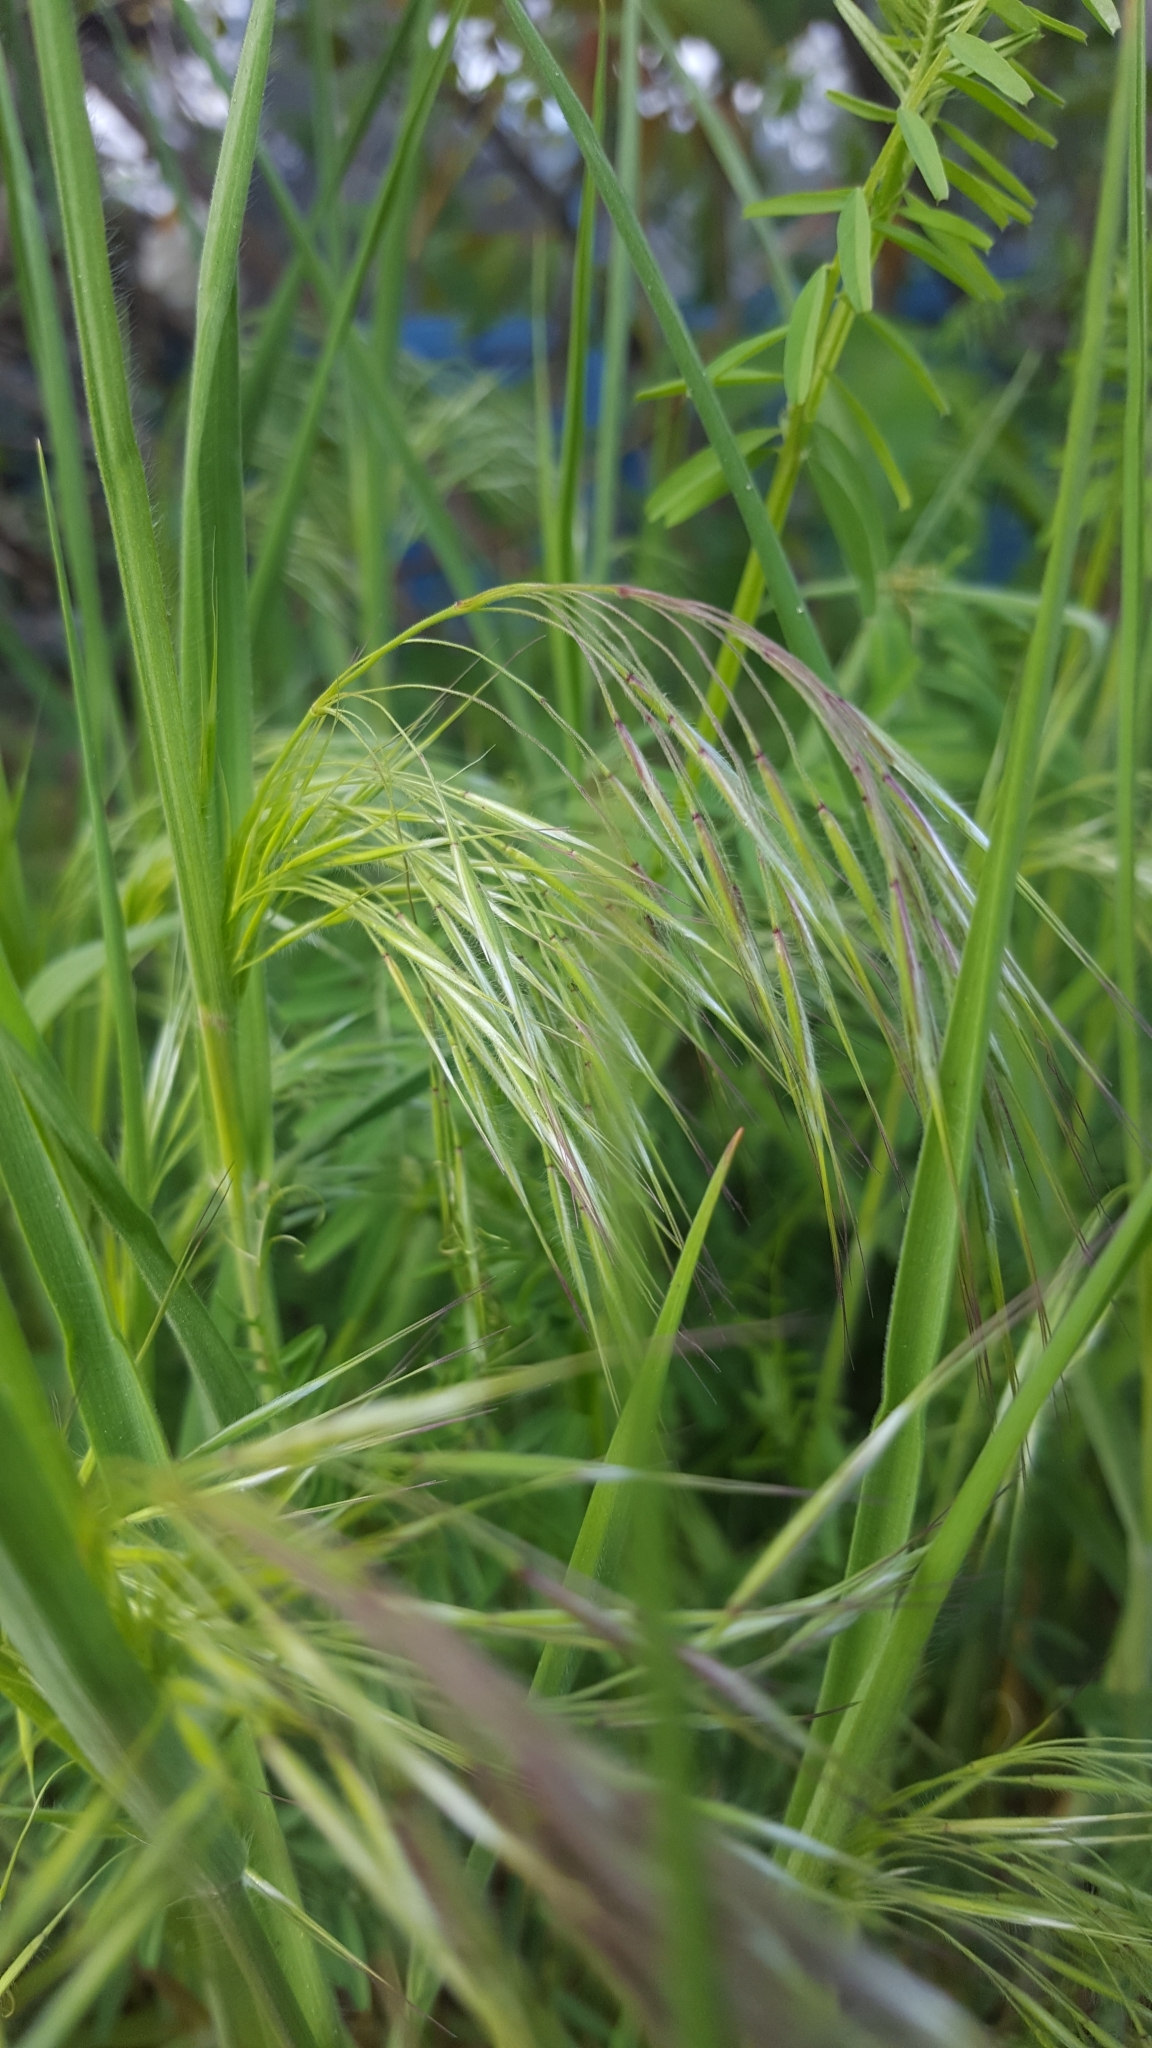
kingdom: Plantae
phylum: Tracheophyta
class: Liliopsida
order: Poales
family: Poaceae
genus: Bromus
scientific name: Bromus sterilis
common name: Poverty brome
